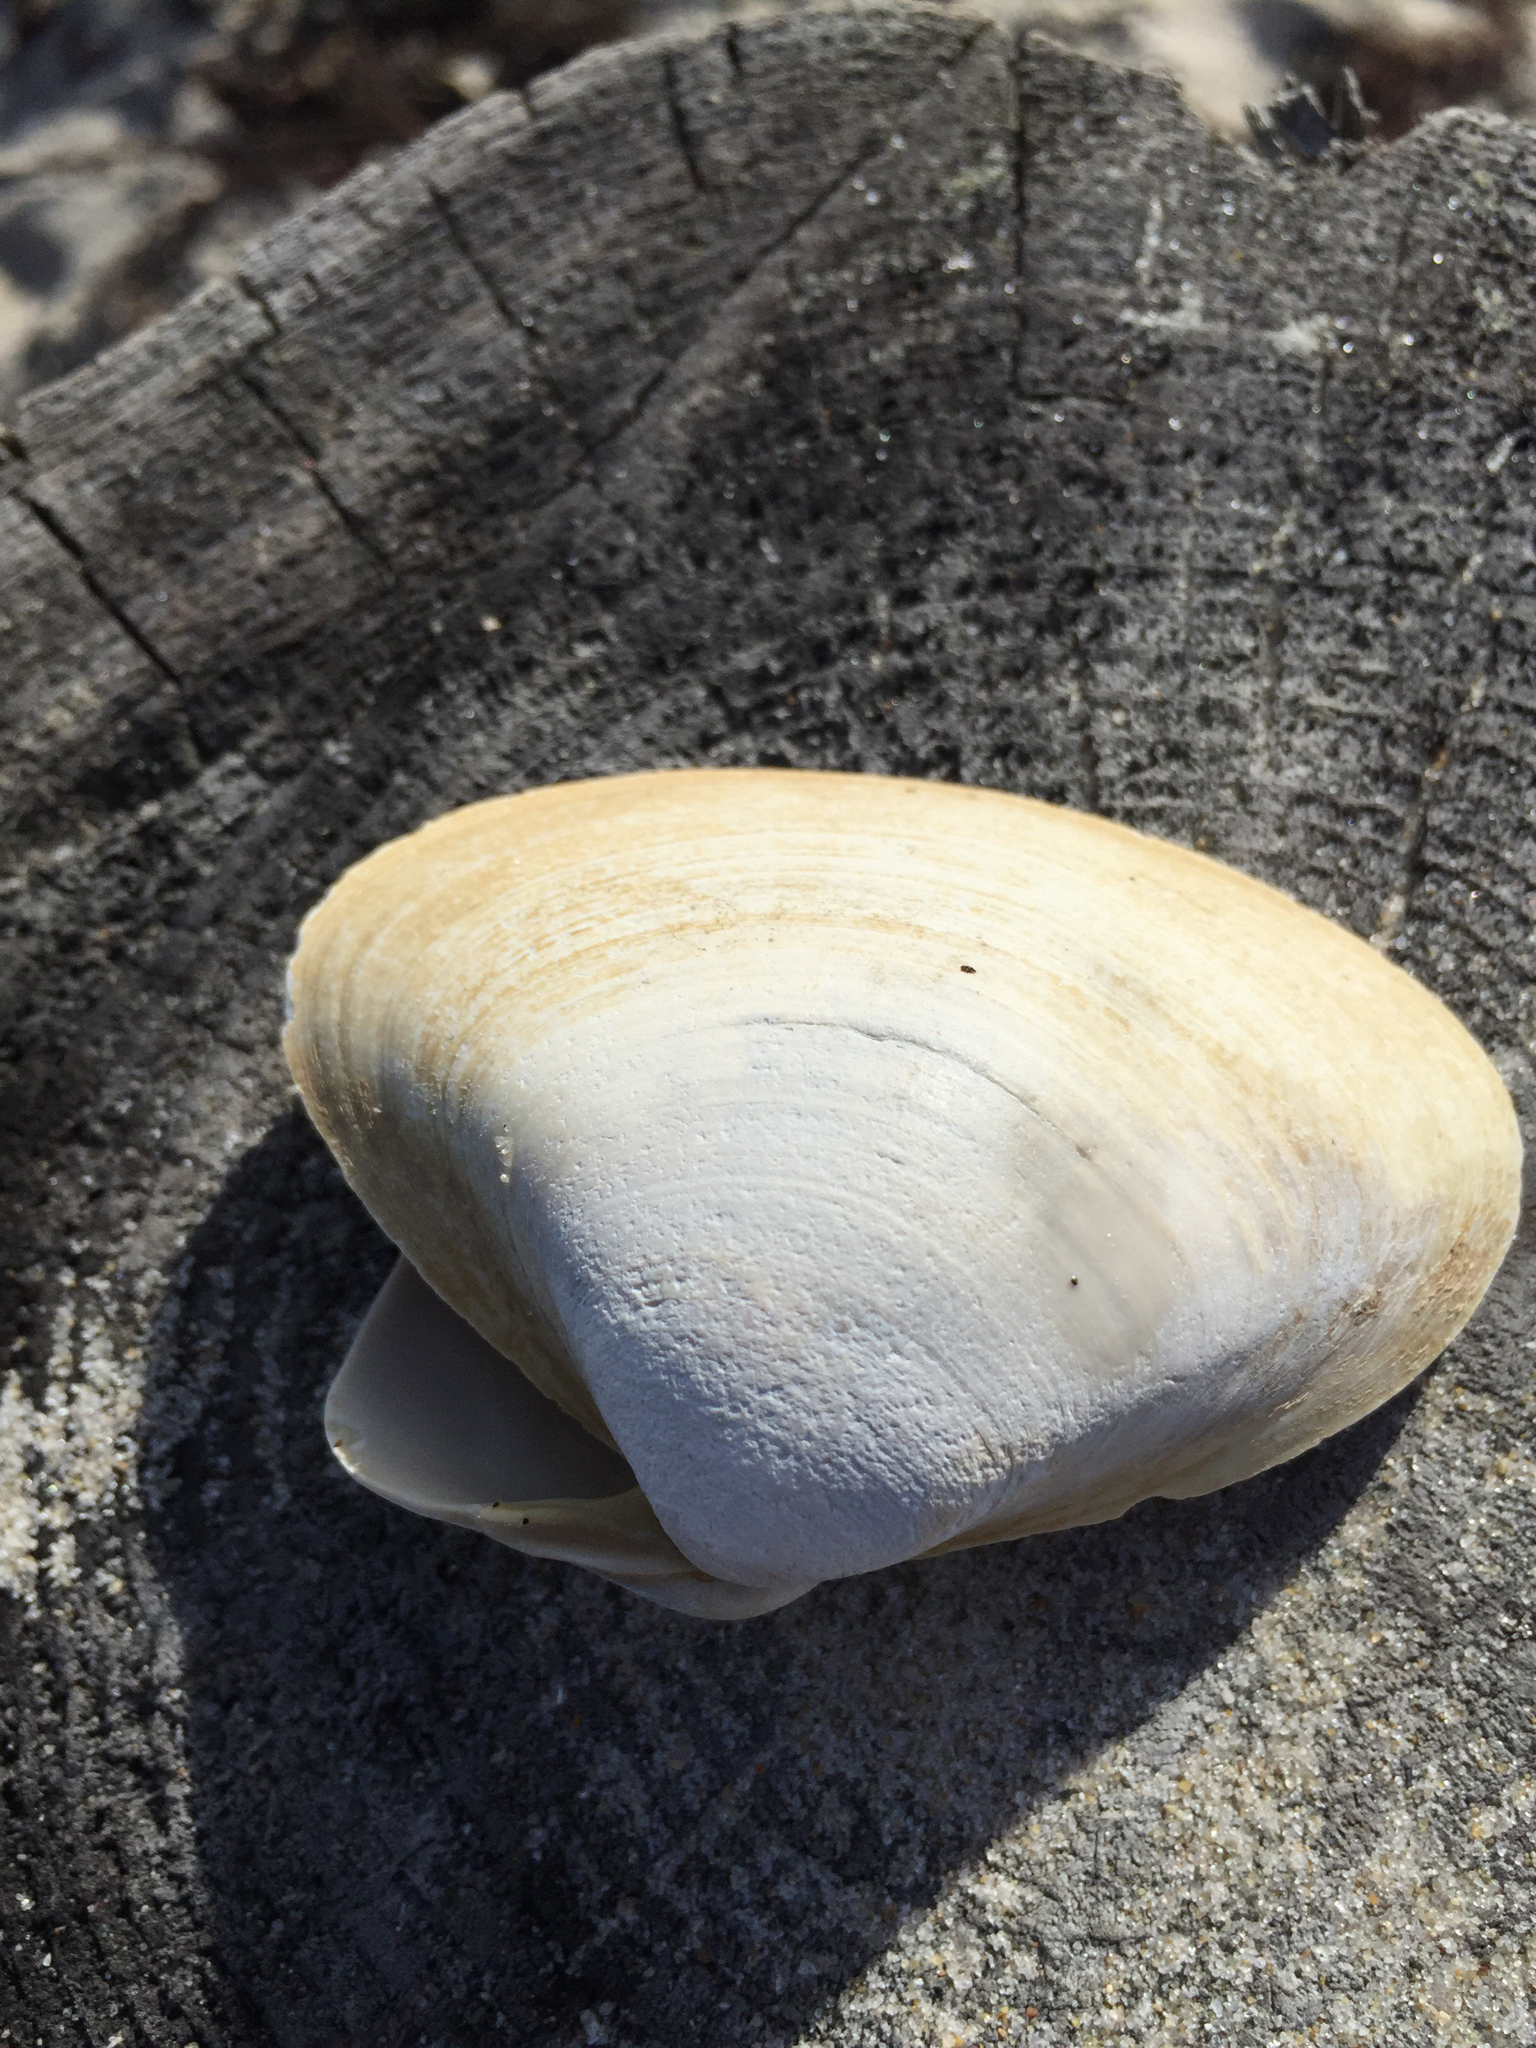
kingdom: Animalia
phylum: Mollusca
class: Bivalvia
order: Venerida
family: Mactridae
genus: Spisula
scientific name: Spisula solidissima
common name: Atlantic surf clam
